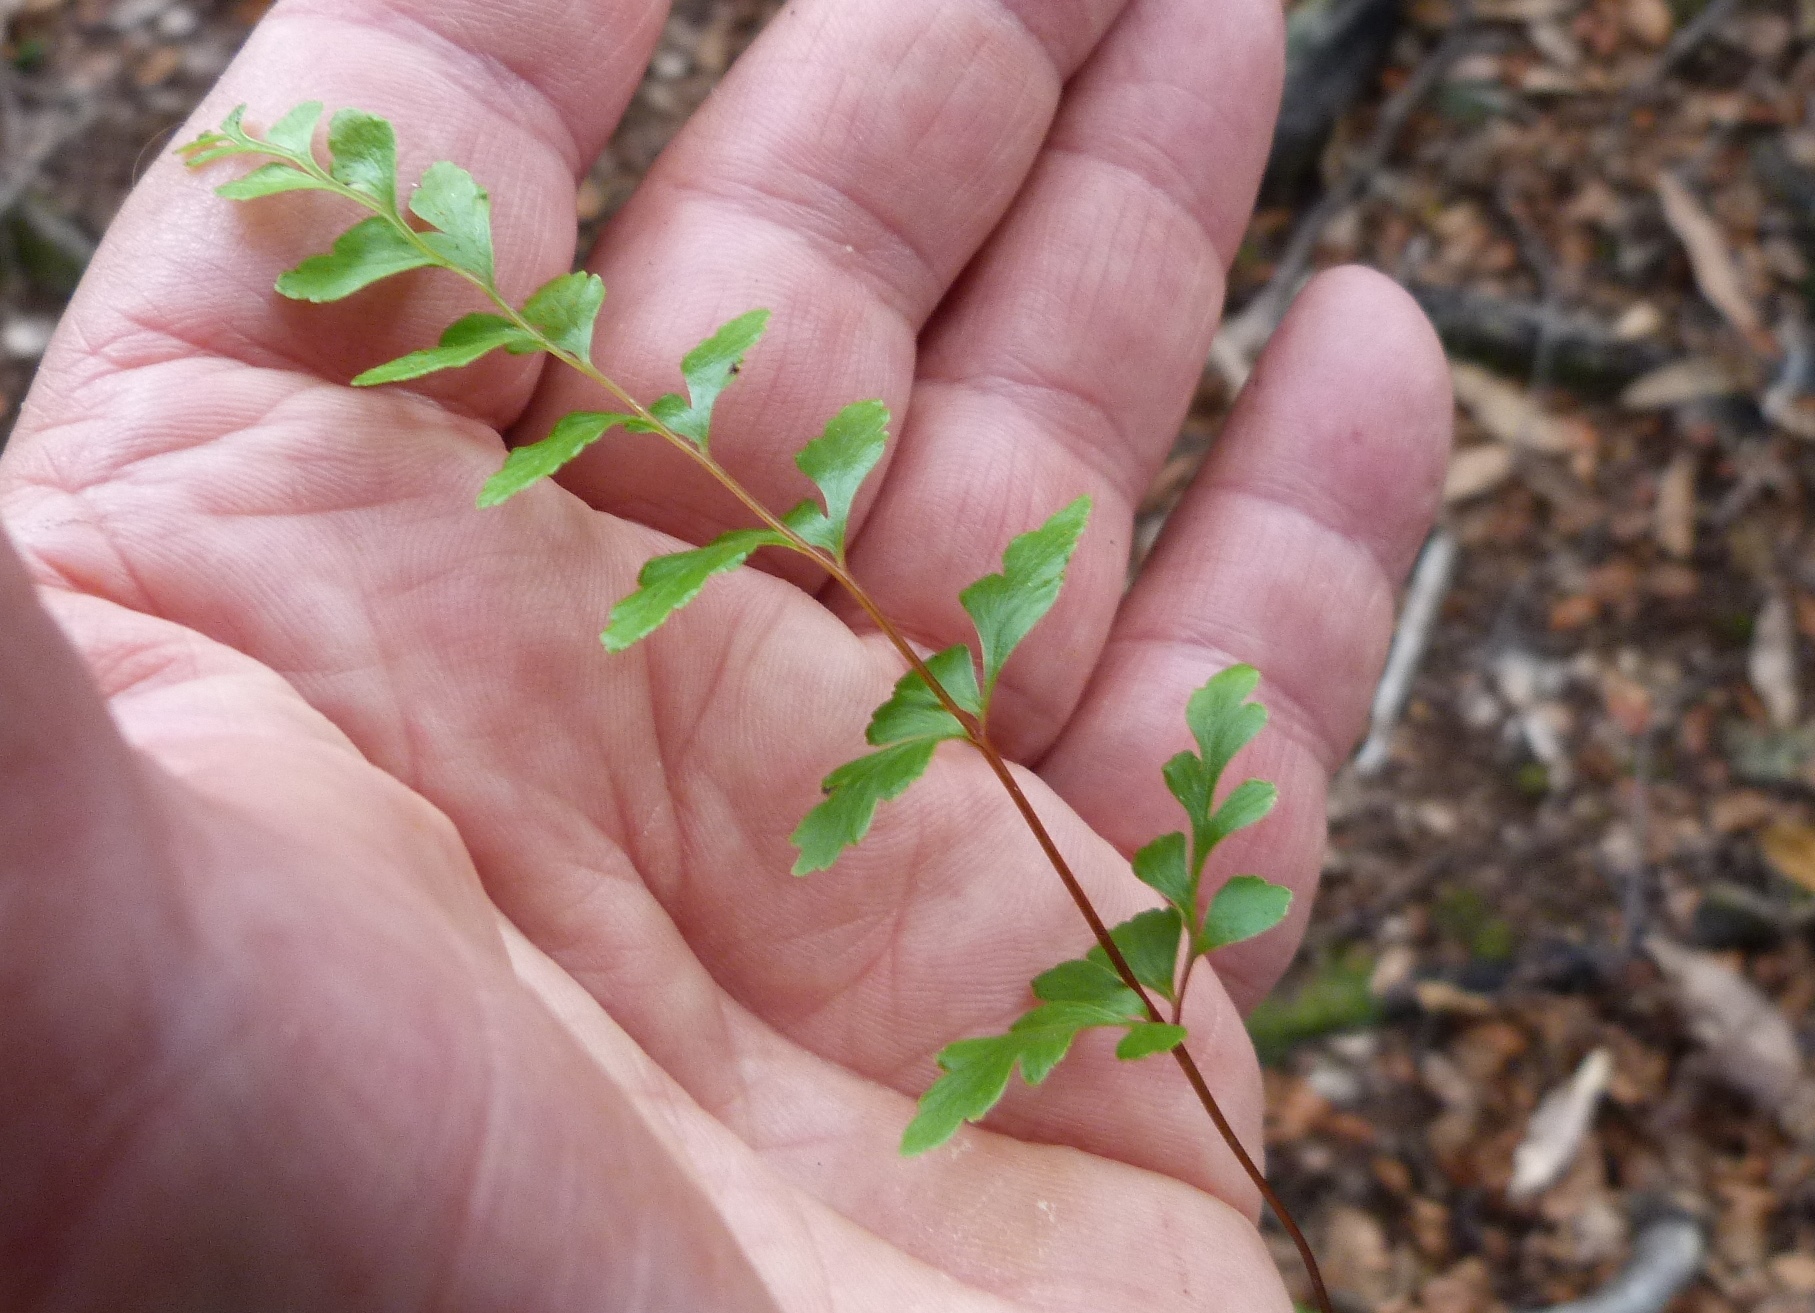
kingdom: Plantae
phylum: Tracheophyta
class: Polypodiopsida
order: Polypodiales
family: Lindsaeaceae
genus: Lindsaea
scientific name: Lindsaea trichomanoides
